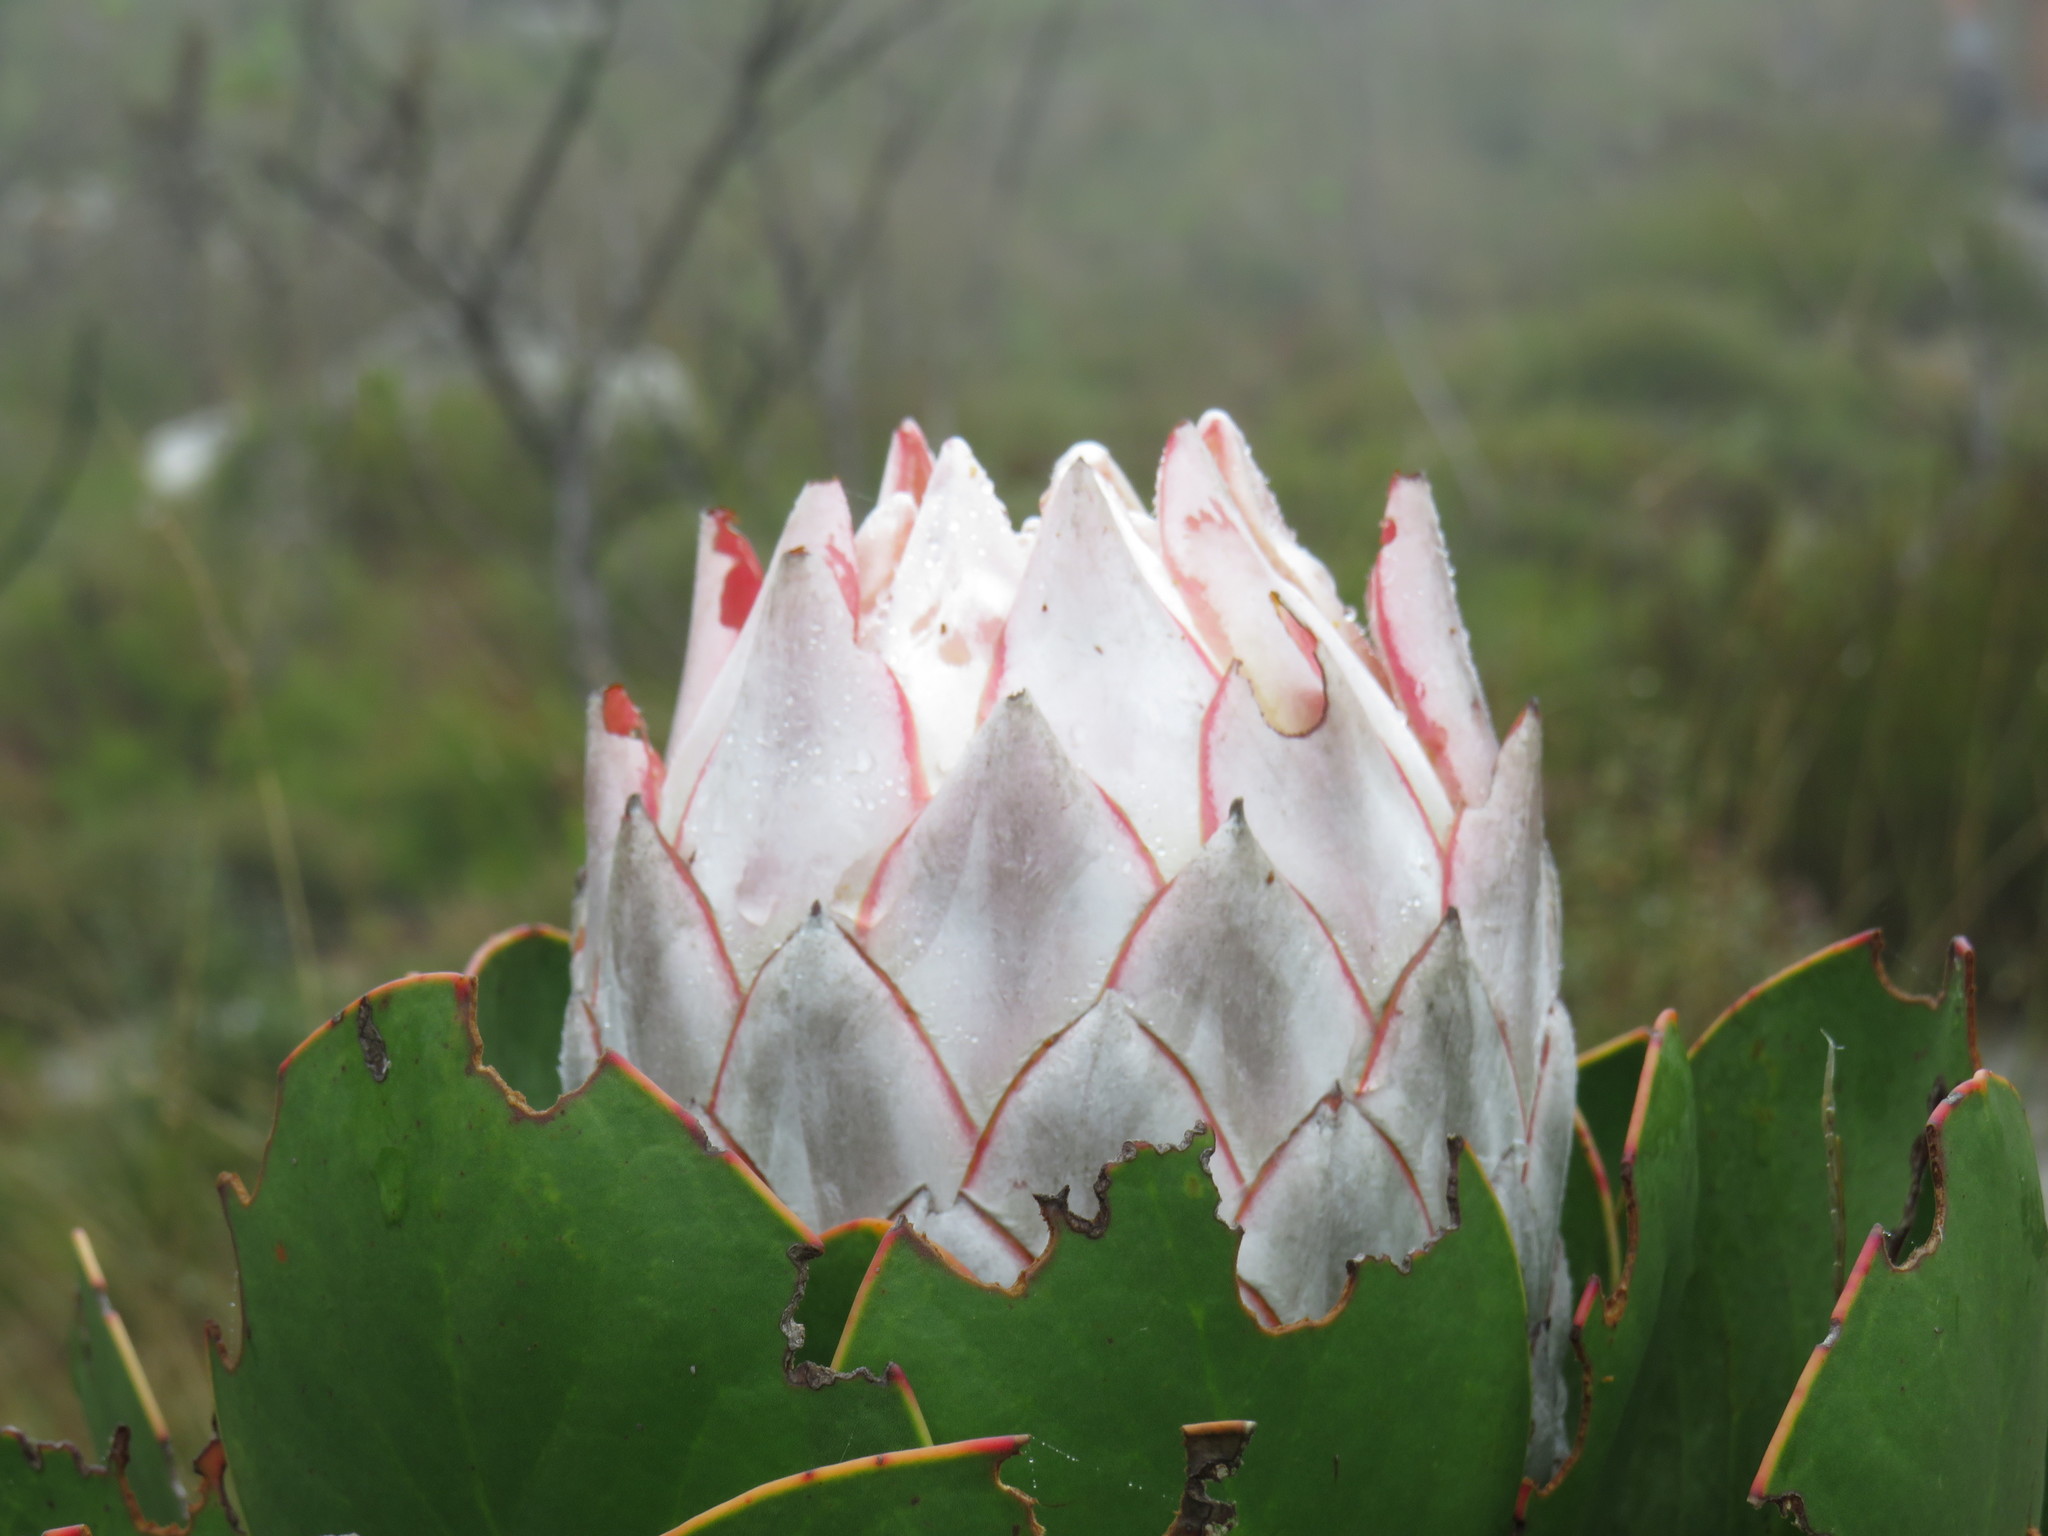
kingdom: Plantae
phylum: Tracheophyta
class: Magnoliopsida
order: Proteales
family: Proteaceae
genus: Protea
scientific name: Protea cynaroides
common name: King protea
